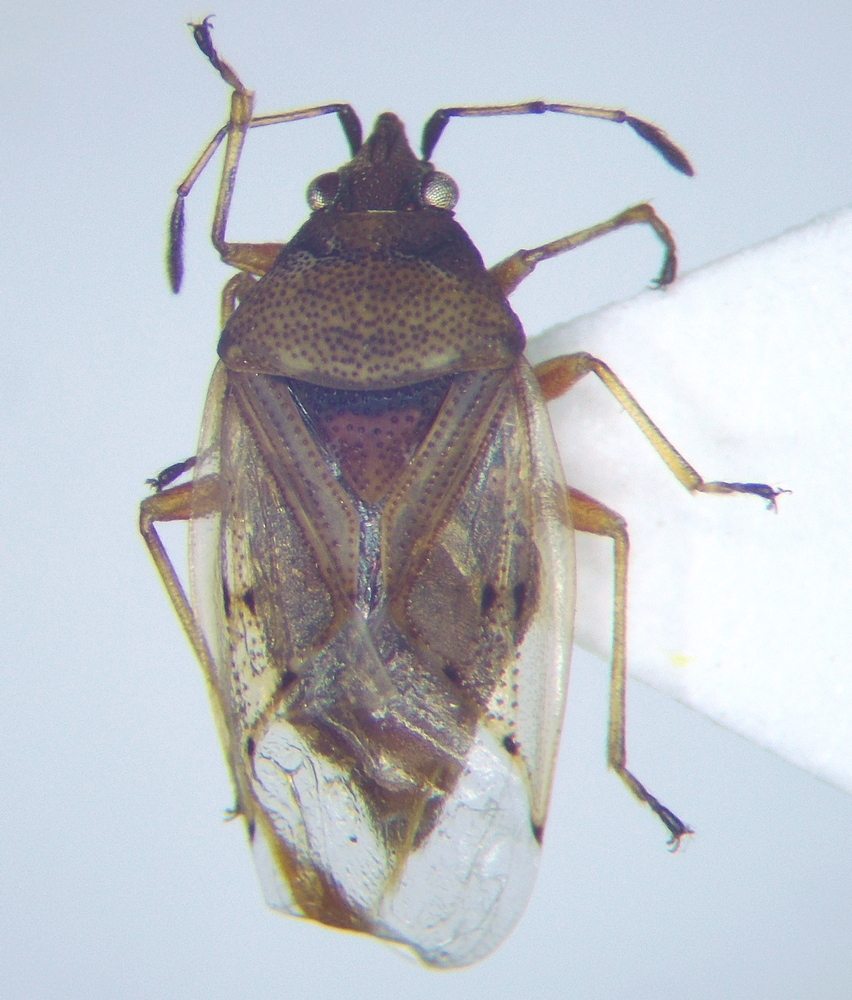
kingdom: Animalia
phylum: Arthropoda
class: Insecta
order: Hemiptera
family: Lygaeidae
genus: Kleidocerys
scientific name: Kleidocerys resedae
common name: Birch catkin bug
